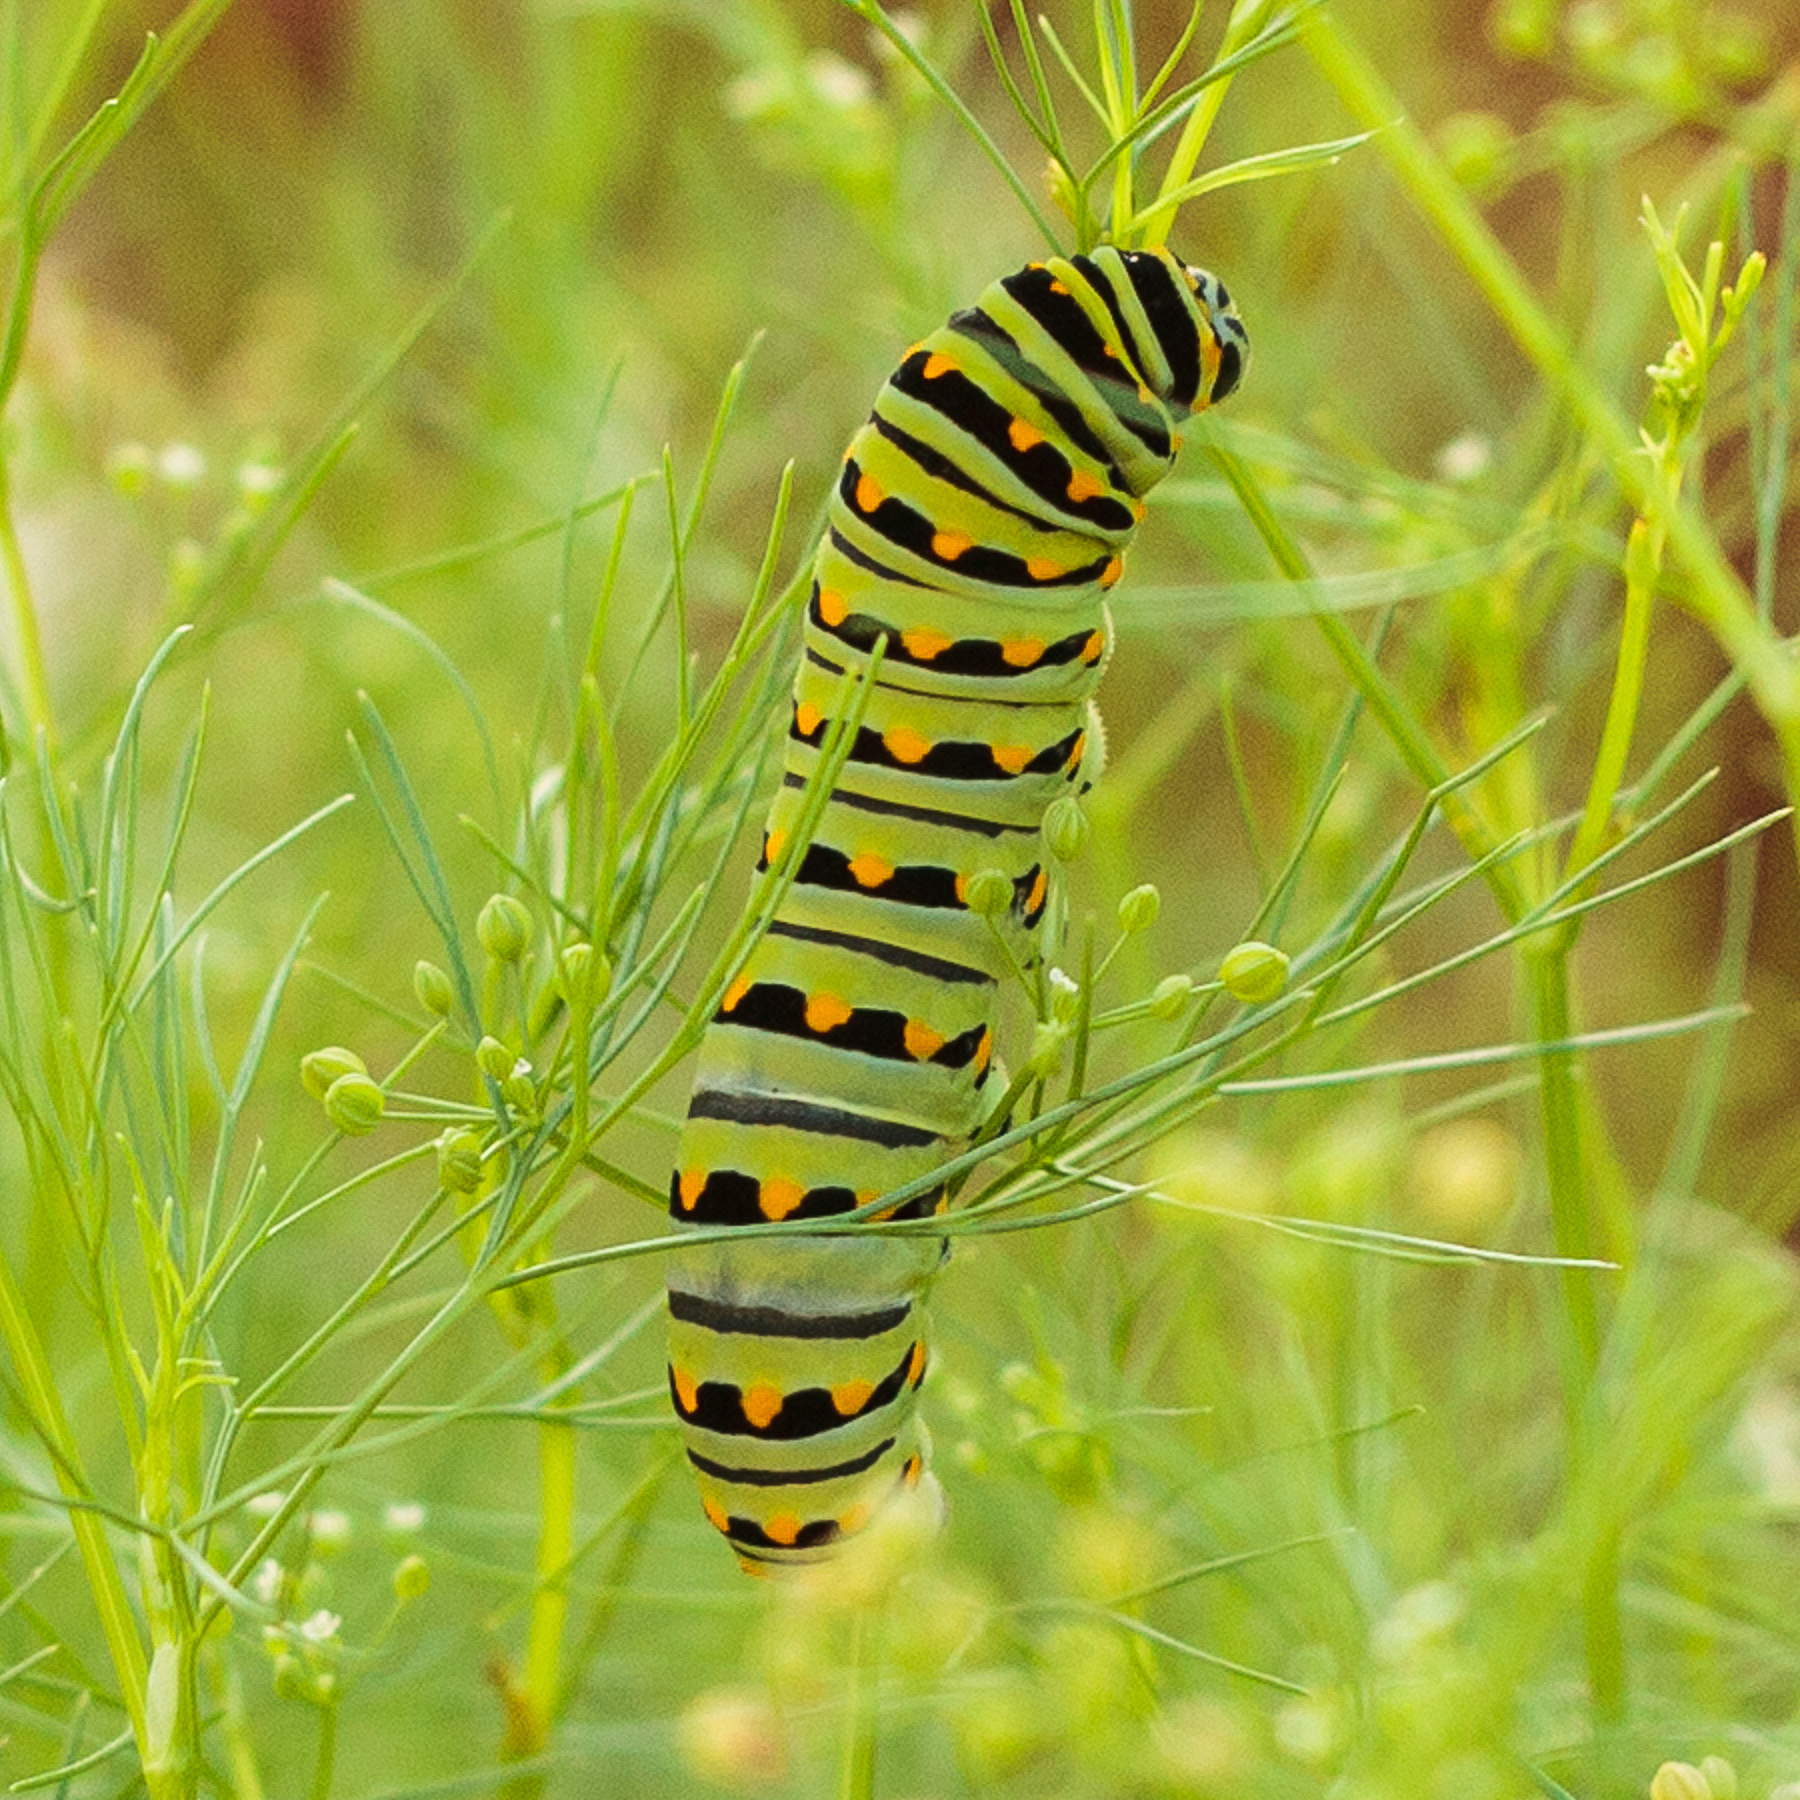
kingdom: Animalia
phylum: Arthropoda
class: Insecta
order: Lepidoptera
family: Papilionidae
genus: Papilio
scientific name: Papilio polyxenes
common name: Black swallowtail
